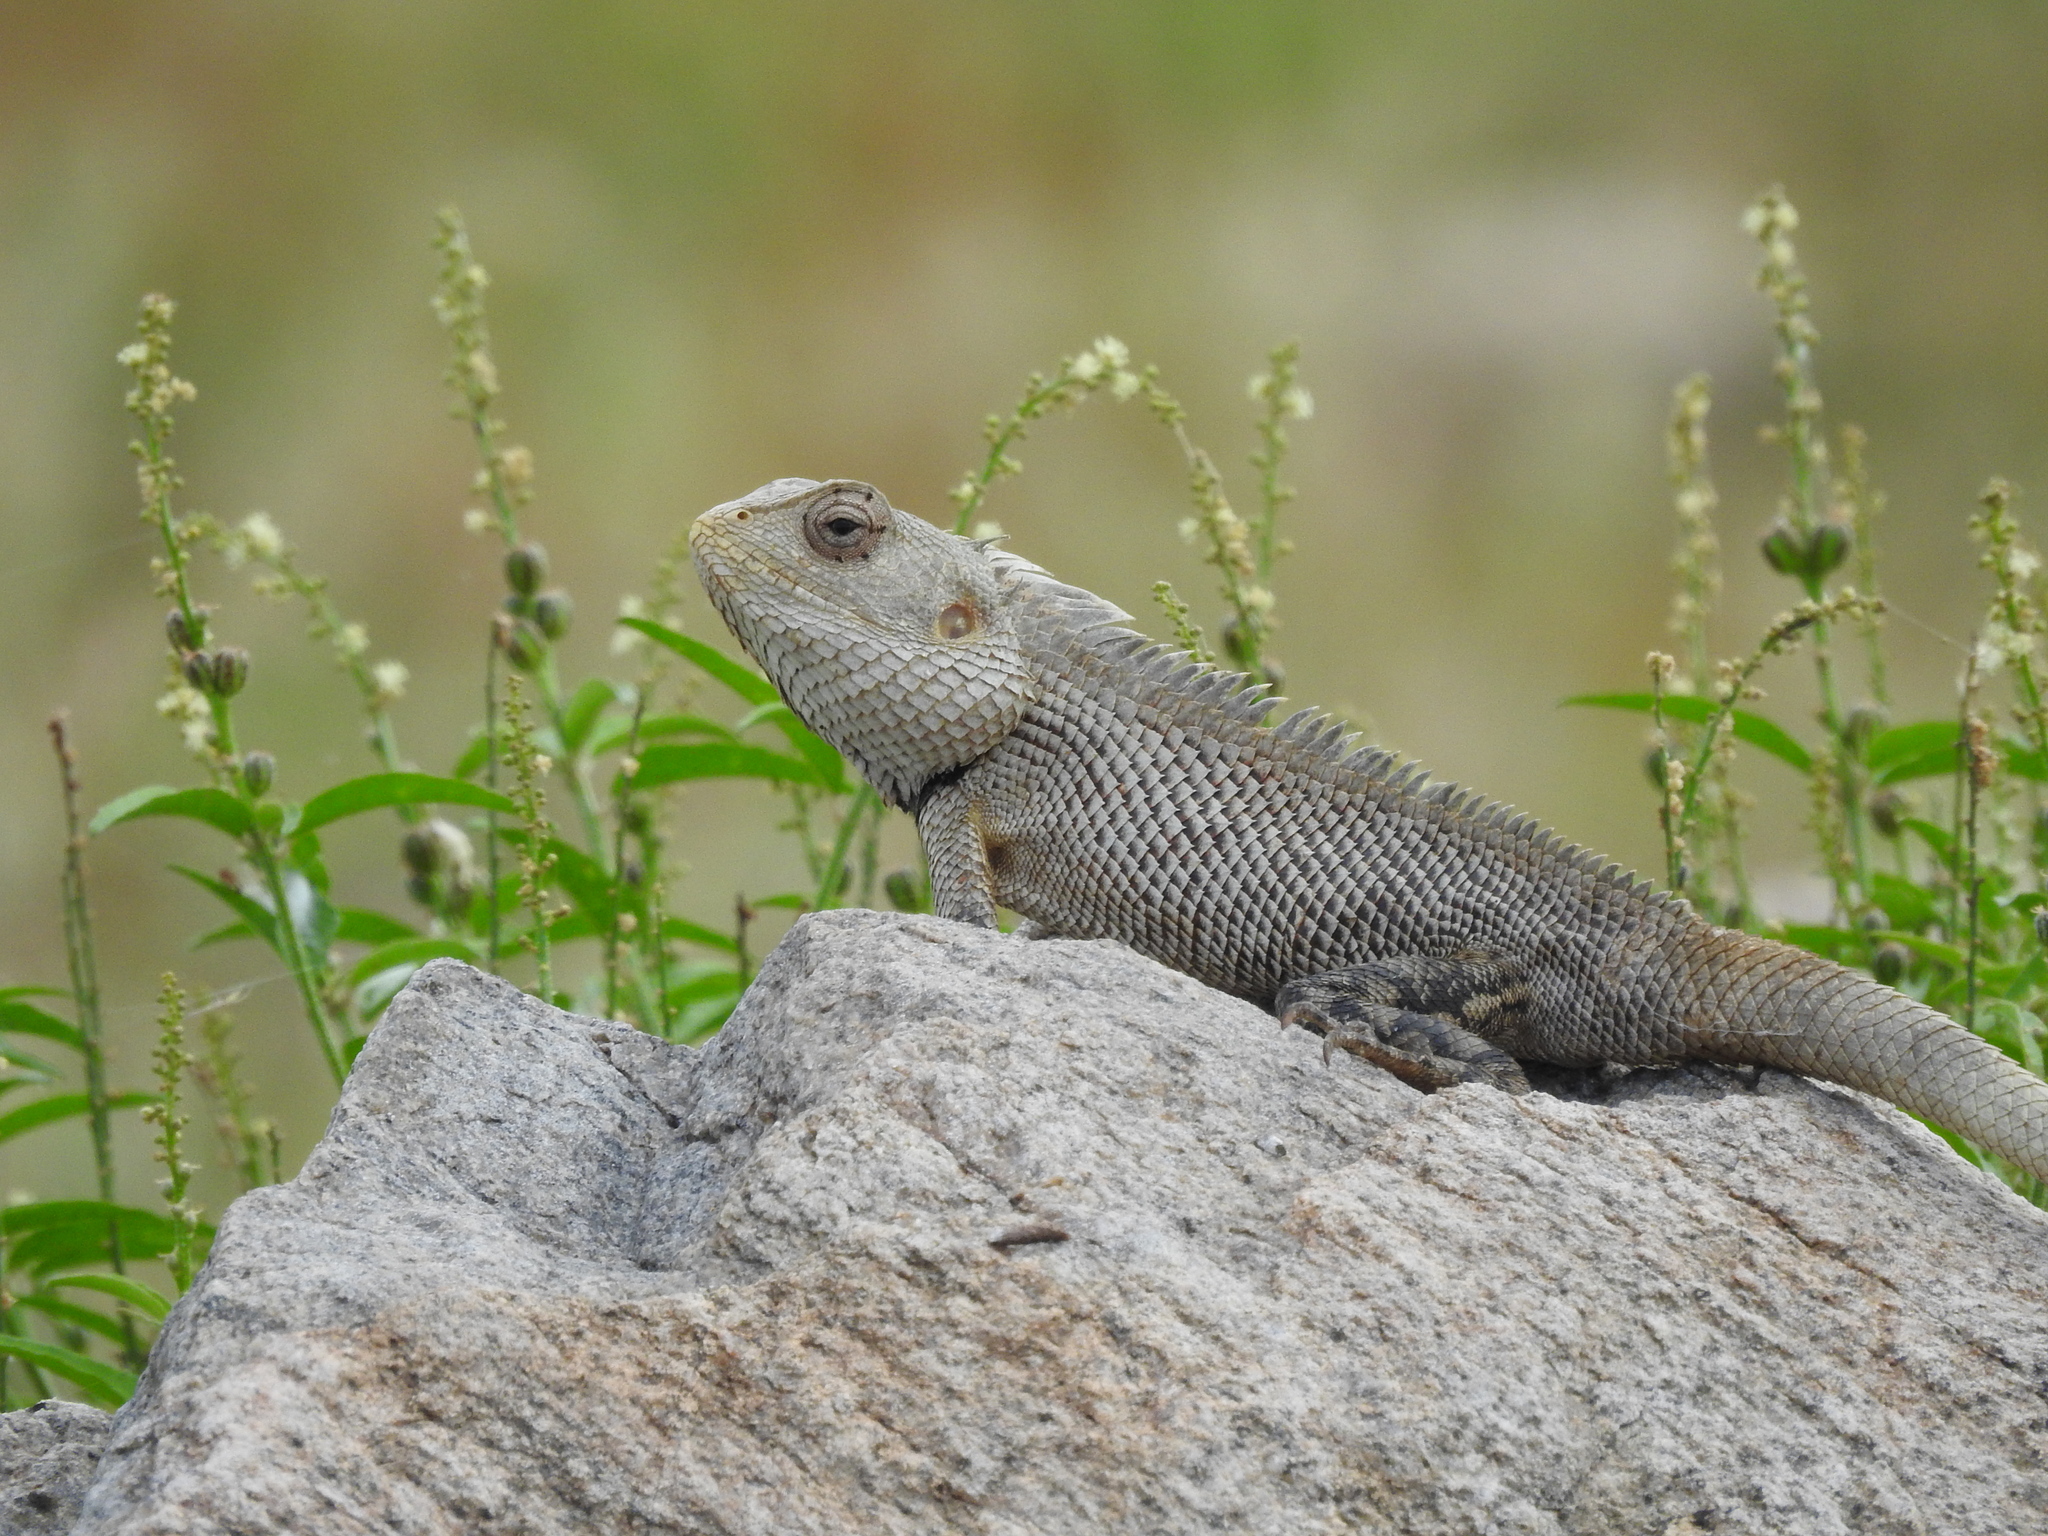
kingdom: Animalia
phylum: Chordata
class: Squamata
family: Agamidae
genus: Calotes
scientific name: Calotes versicolor
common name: Oriental garden lizard
